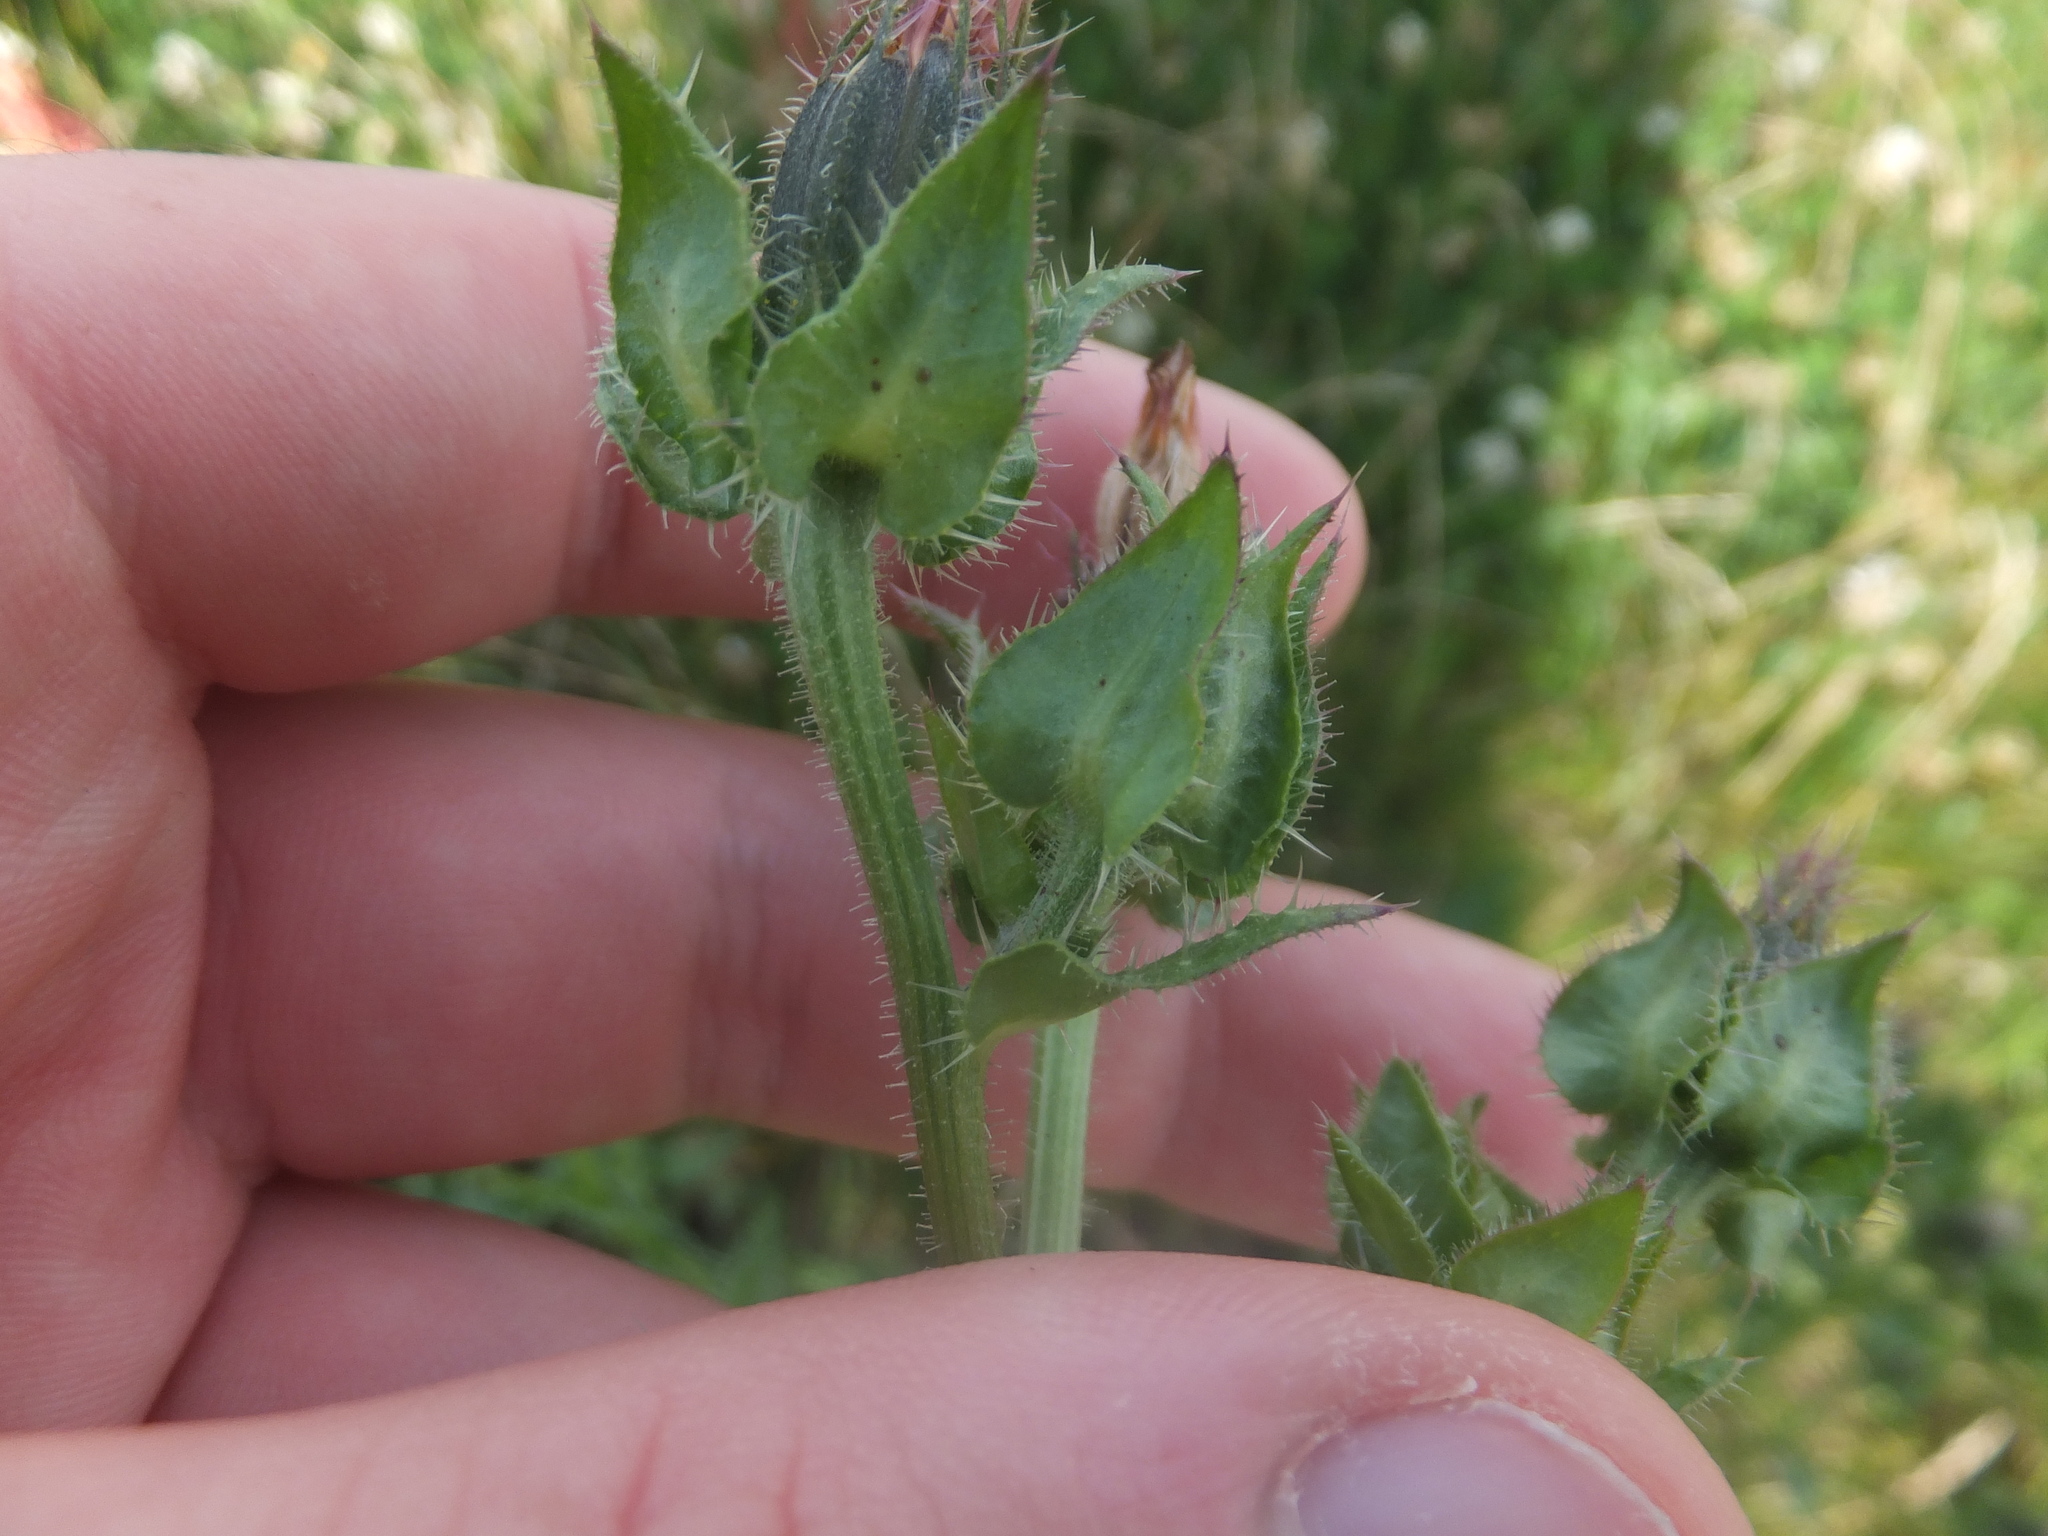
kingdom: Plantae
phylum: Tracheophyta
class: Magnoliopsida
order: Asterales
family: Asteraceae
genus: Helminthotheca
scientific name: Helminthotheca echioides
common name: Ox-tongue
